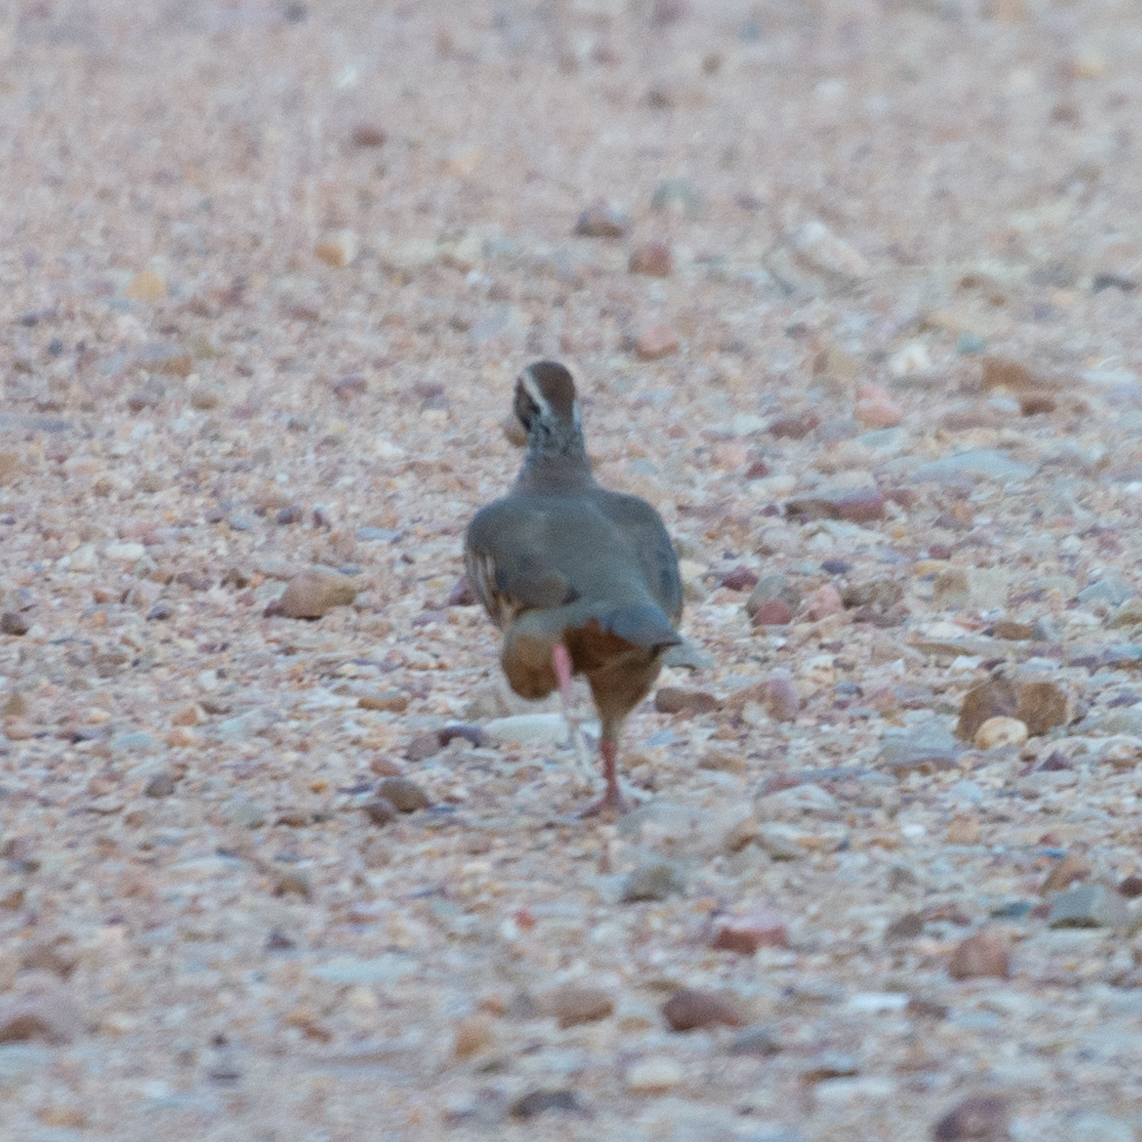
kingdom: Animalia
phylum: Chordata
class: Aves
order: Galliformes
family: Phasianidae
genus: Alectoris
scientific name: Alectoris rufa
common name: Red-legged partridge
